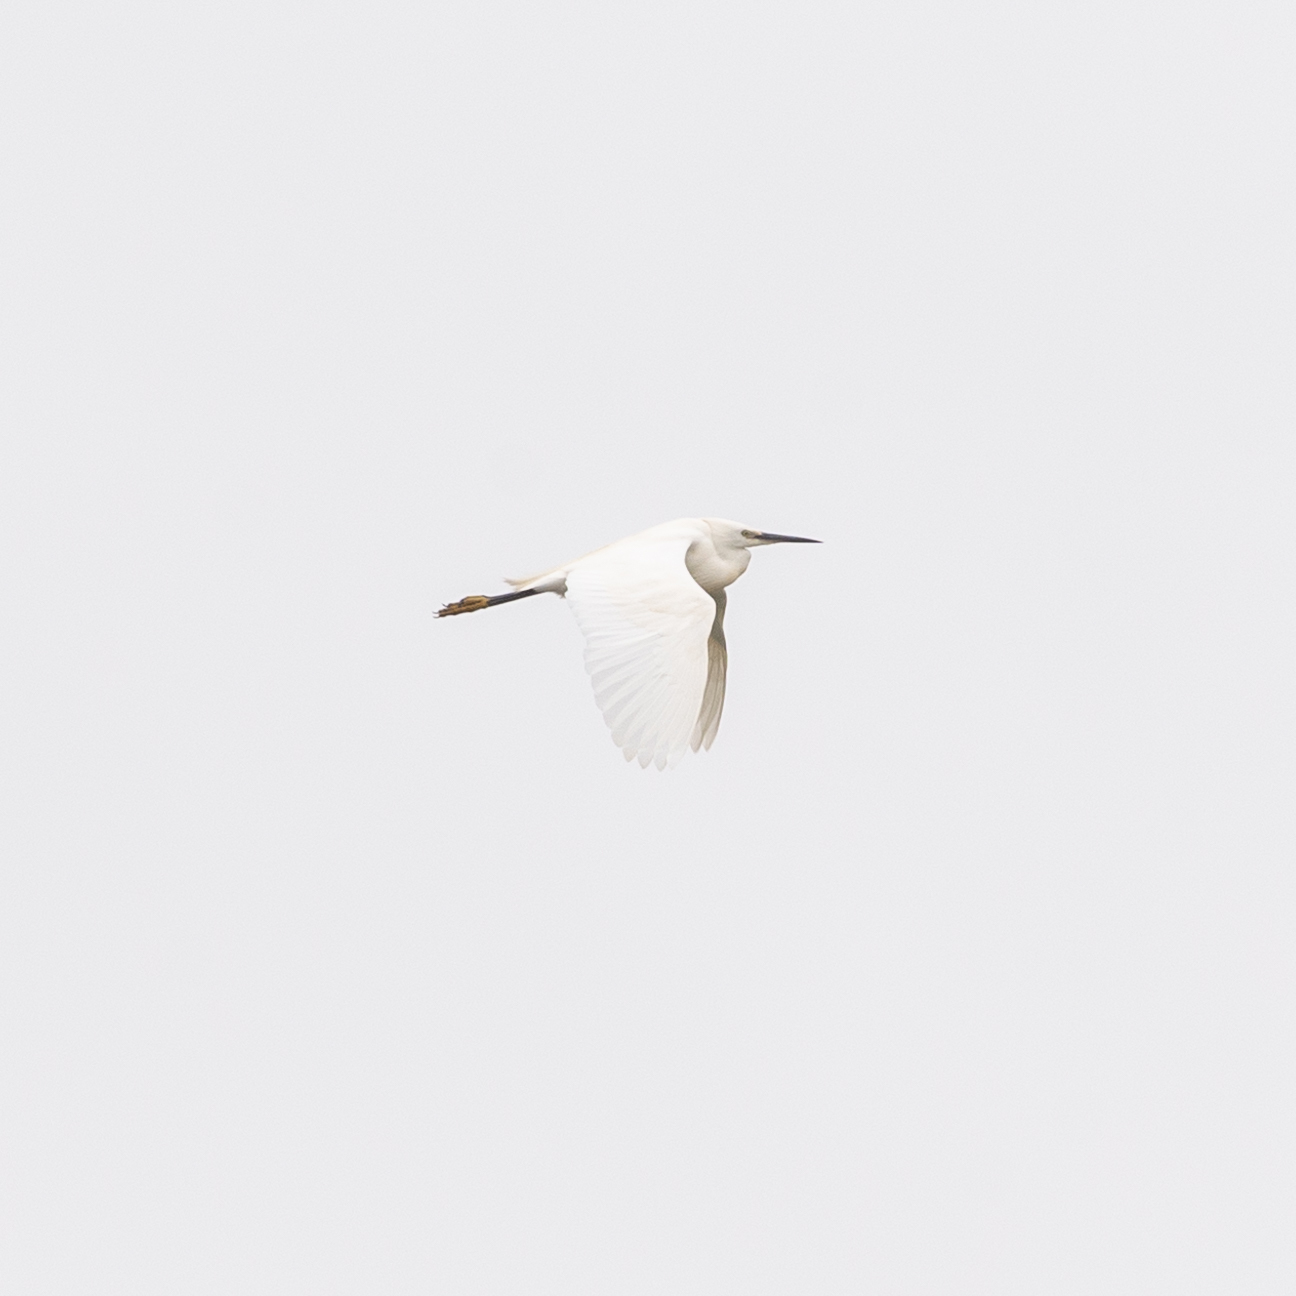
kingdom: Animalia
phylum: Chordata
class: Aves
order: Pelecaniformes
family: Ardeidae
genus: Egretta
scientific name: Egretta garzetta
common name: Little egret
